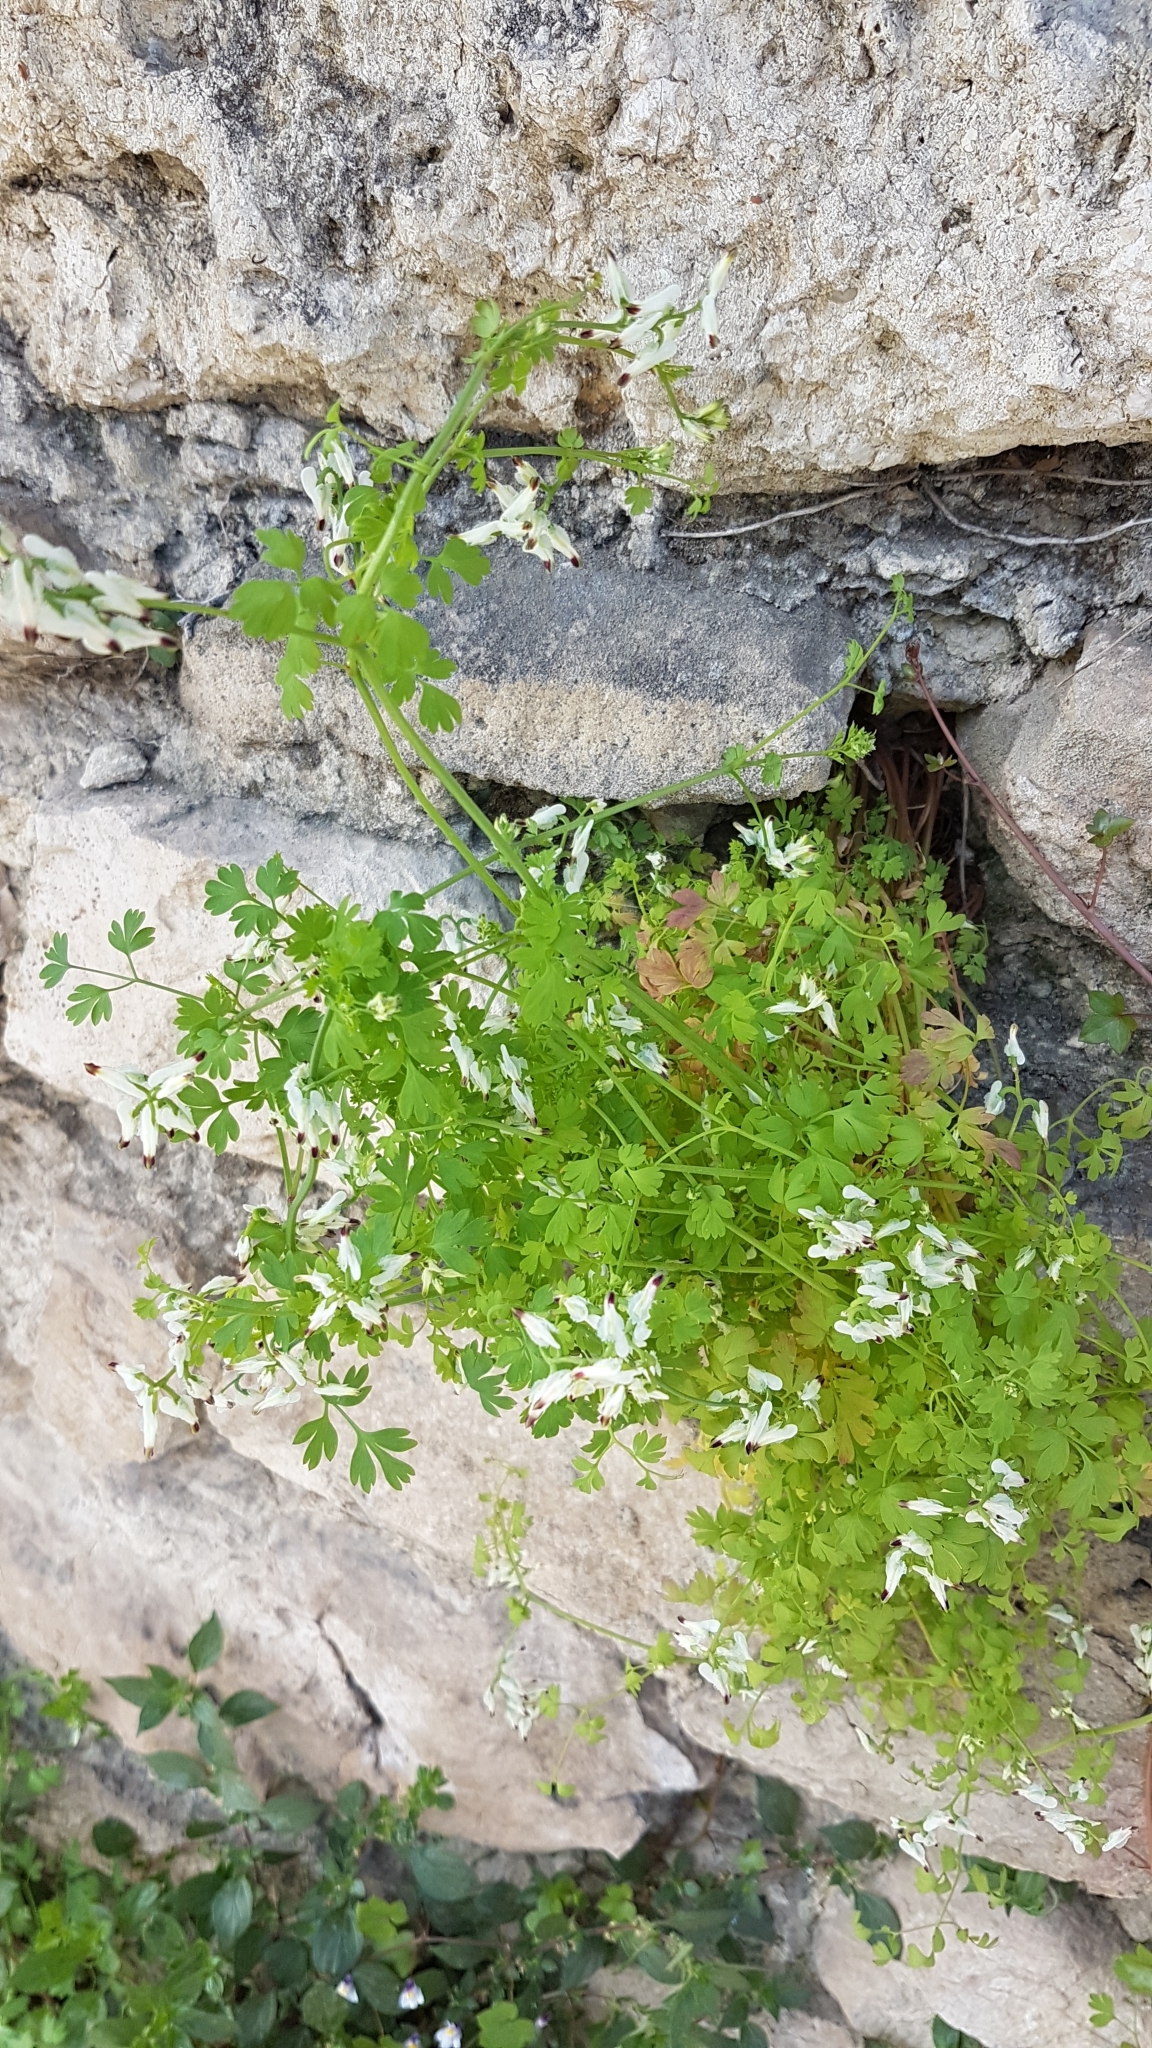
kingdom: Plantae
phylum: Tracheophyta
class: Magnoliopsida
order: Ranunculales
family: Papaveraceae
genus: Fumaria
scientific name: Fumaria capreolata
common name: White ramping-fumitory
